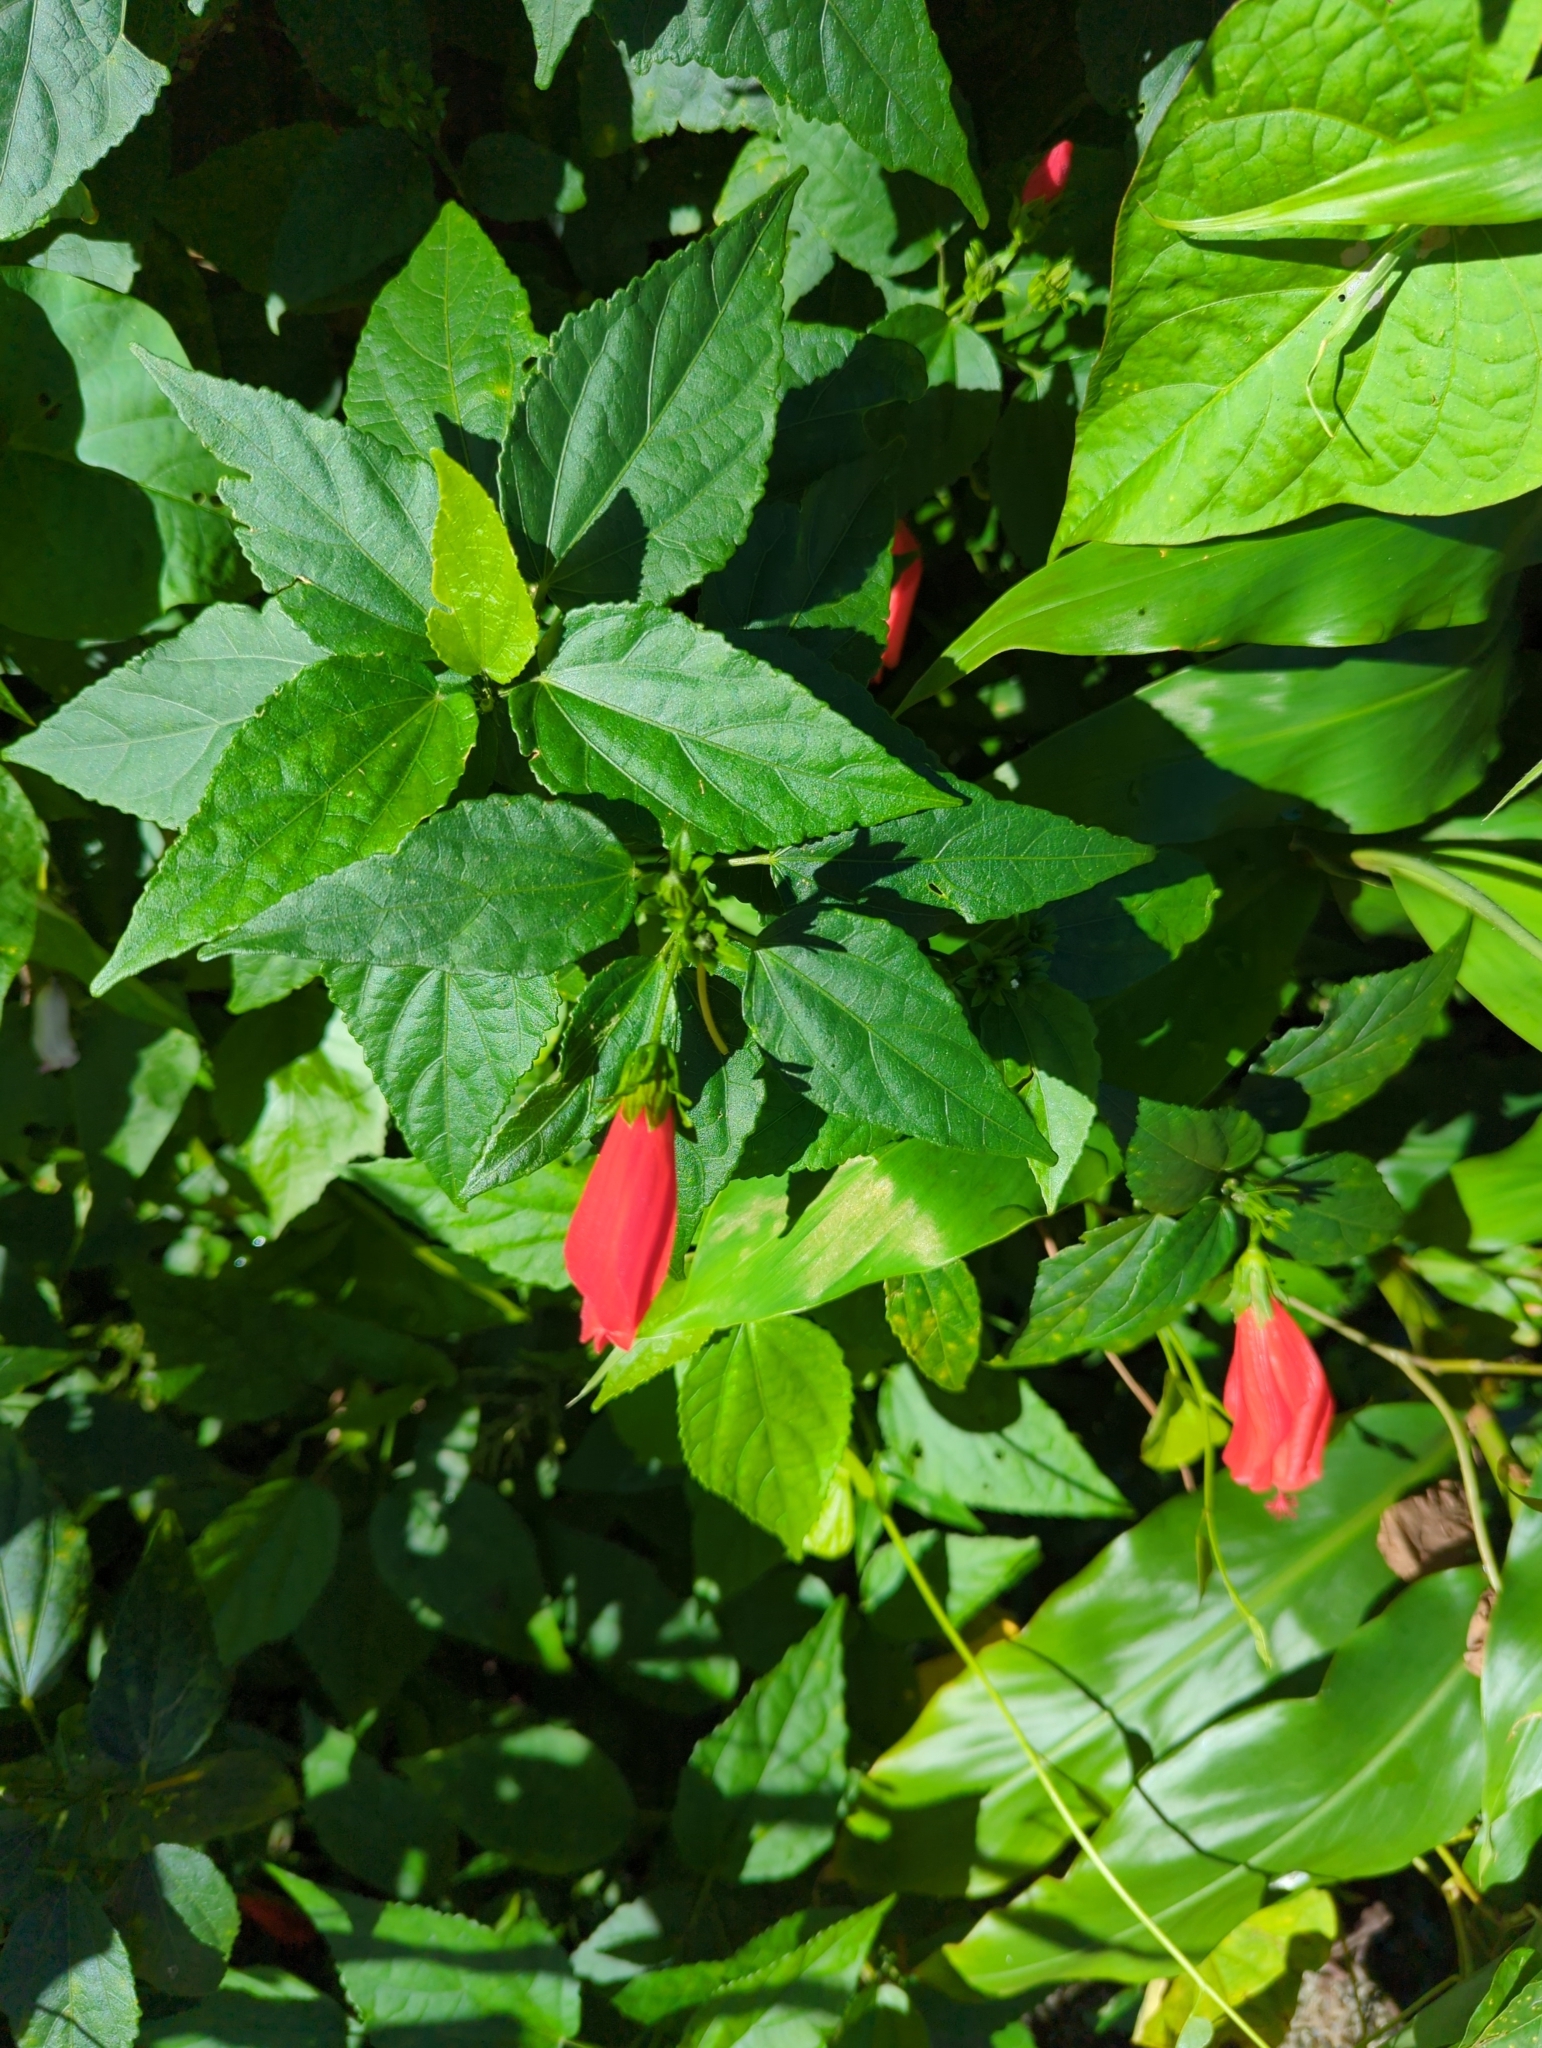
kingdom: Plantae
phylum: Tracheophyta
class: Magnoliopsida
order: Malvales
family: Malvaceae
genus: Malvaviscus
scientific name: Malvaviscus penduliflorus
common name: Mazapan
